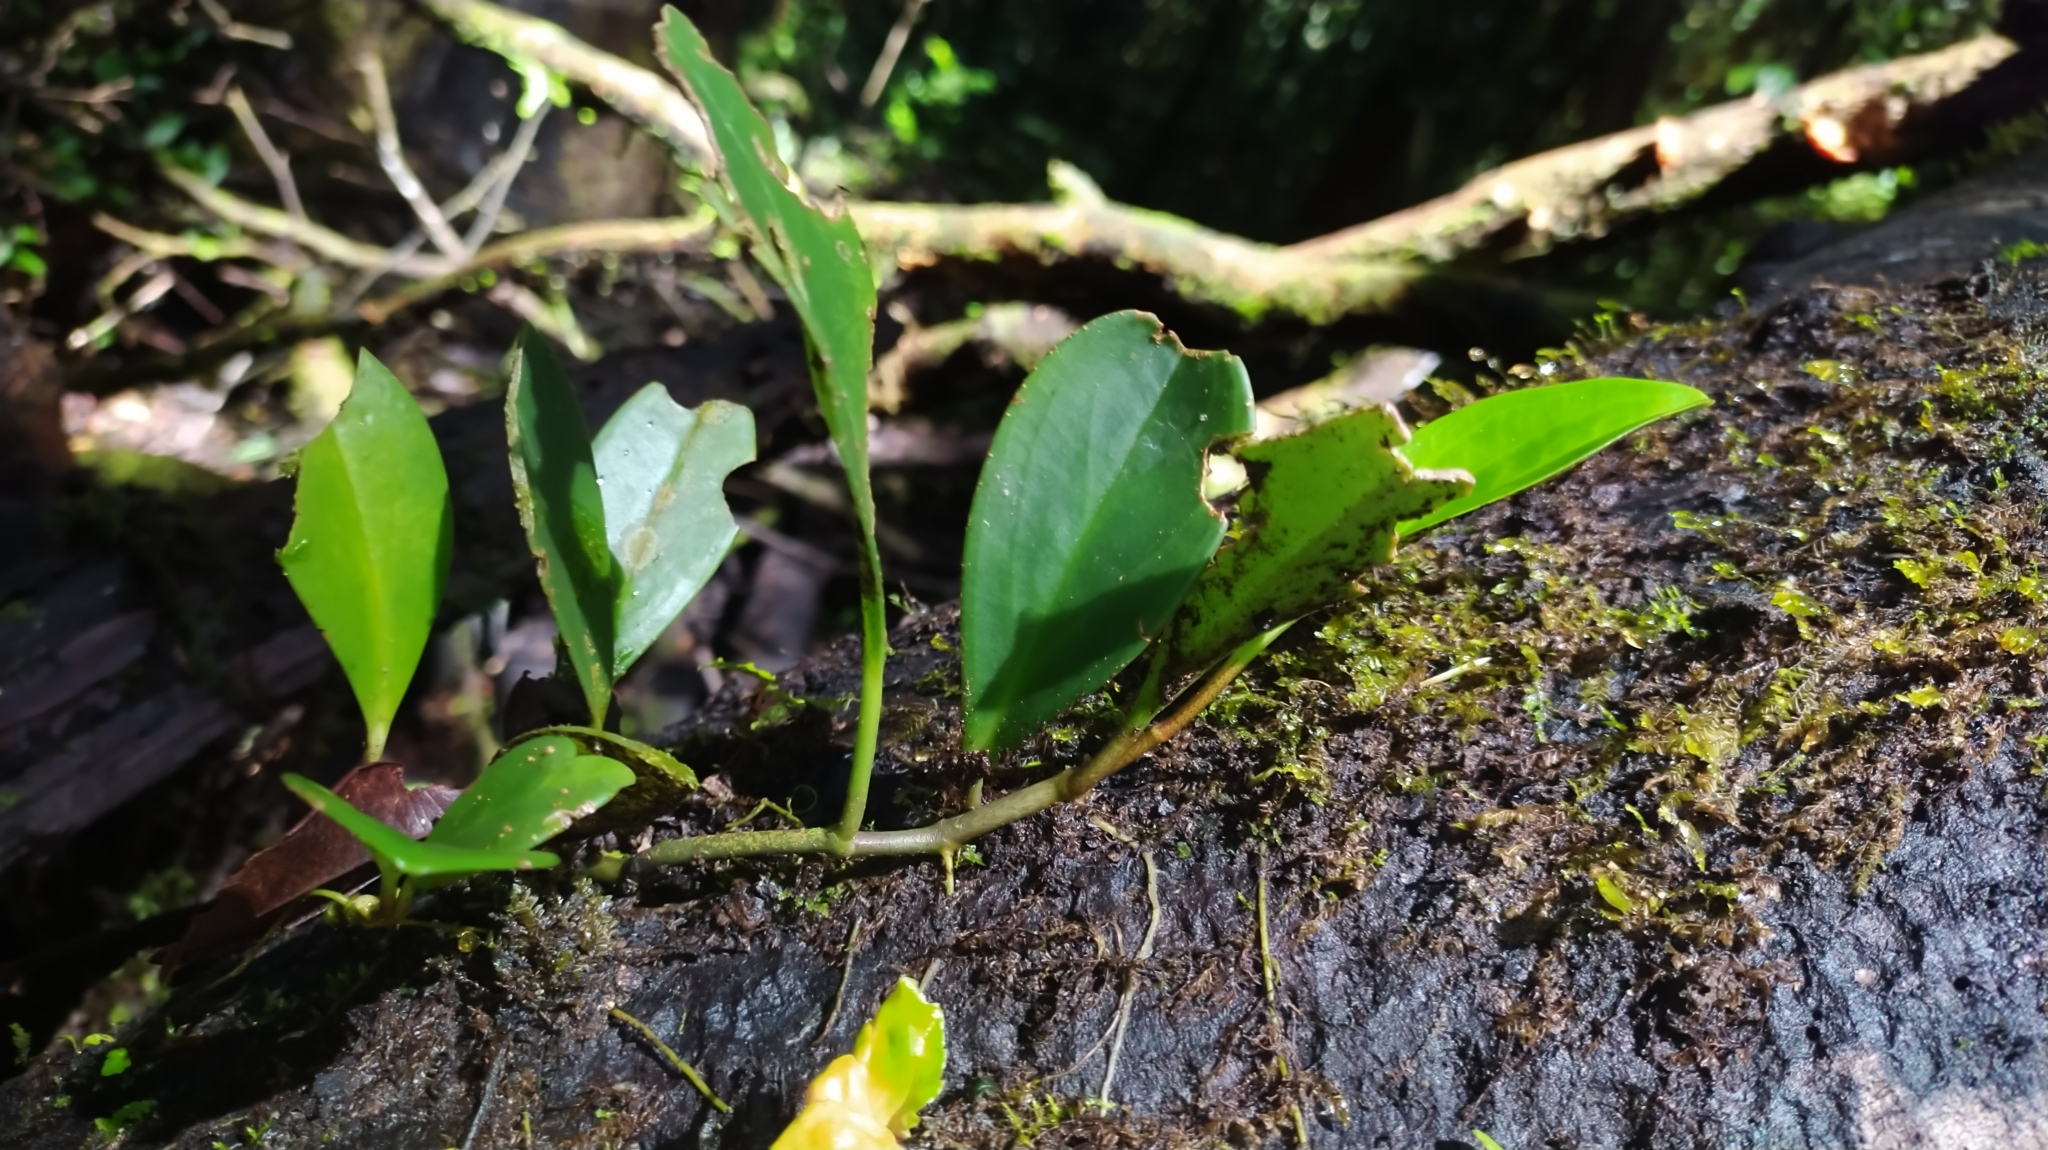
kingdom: Plantae
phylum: Tracheophyta
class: Magnoliopsida
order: Piperales
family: Piperaceae
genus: Peperomia
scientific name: Peperomia obtusifolia
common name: Baby rubberplant
